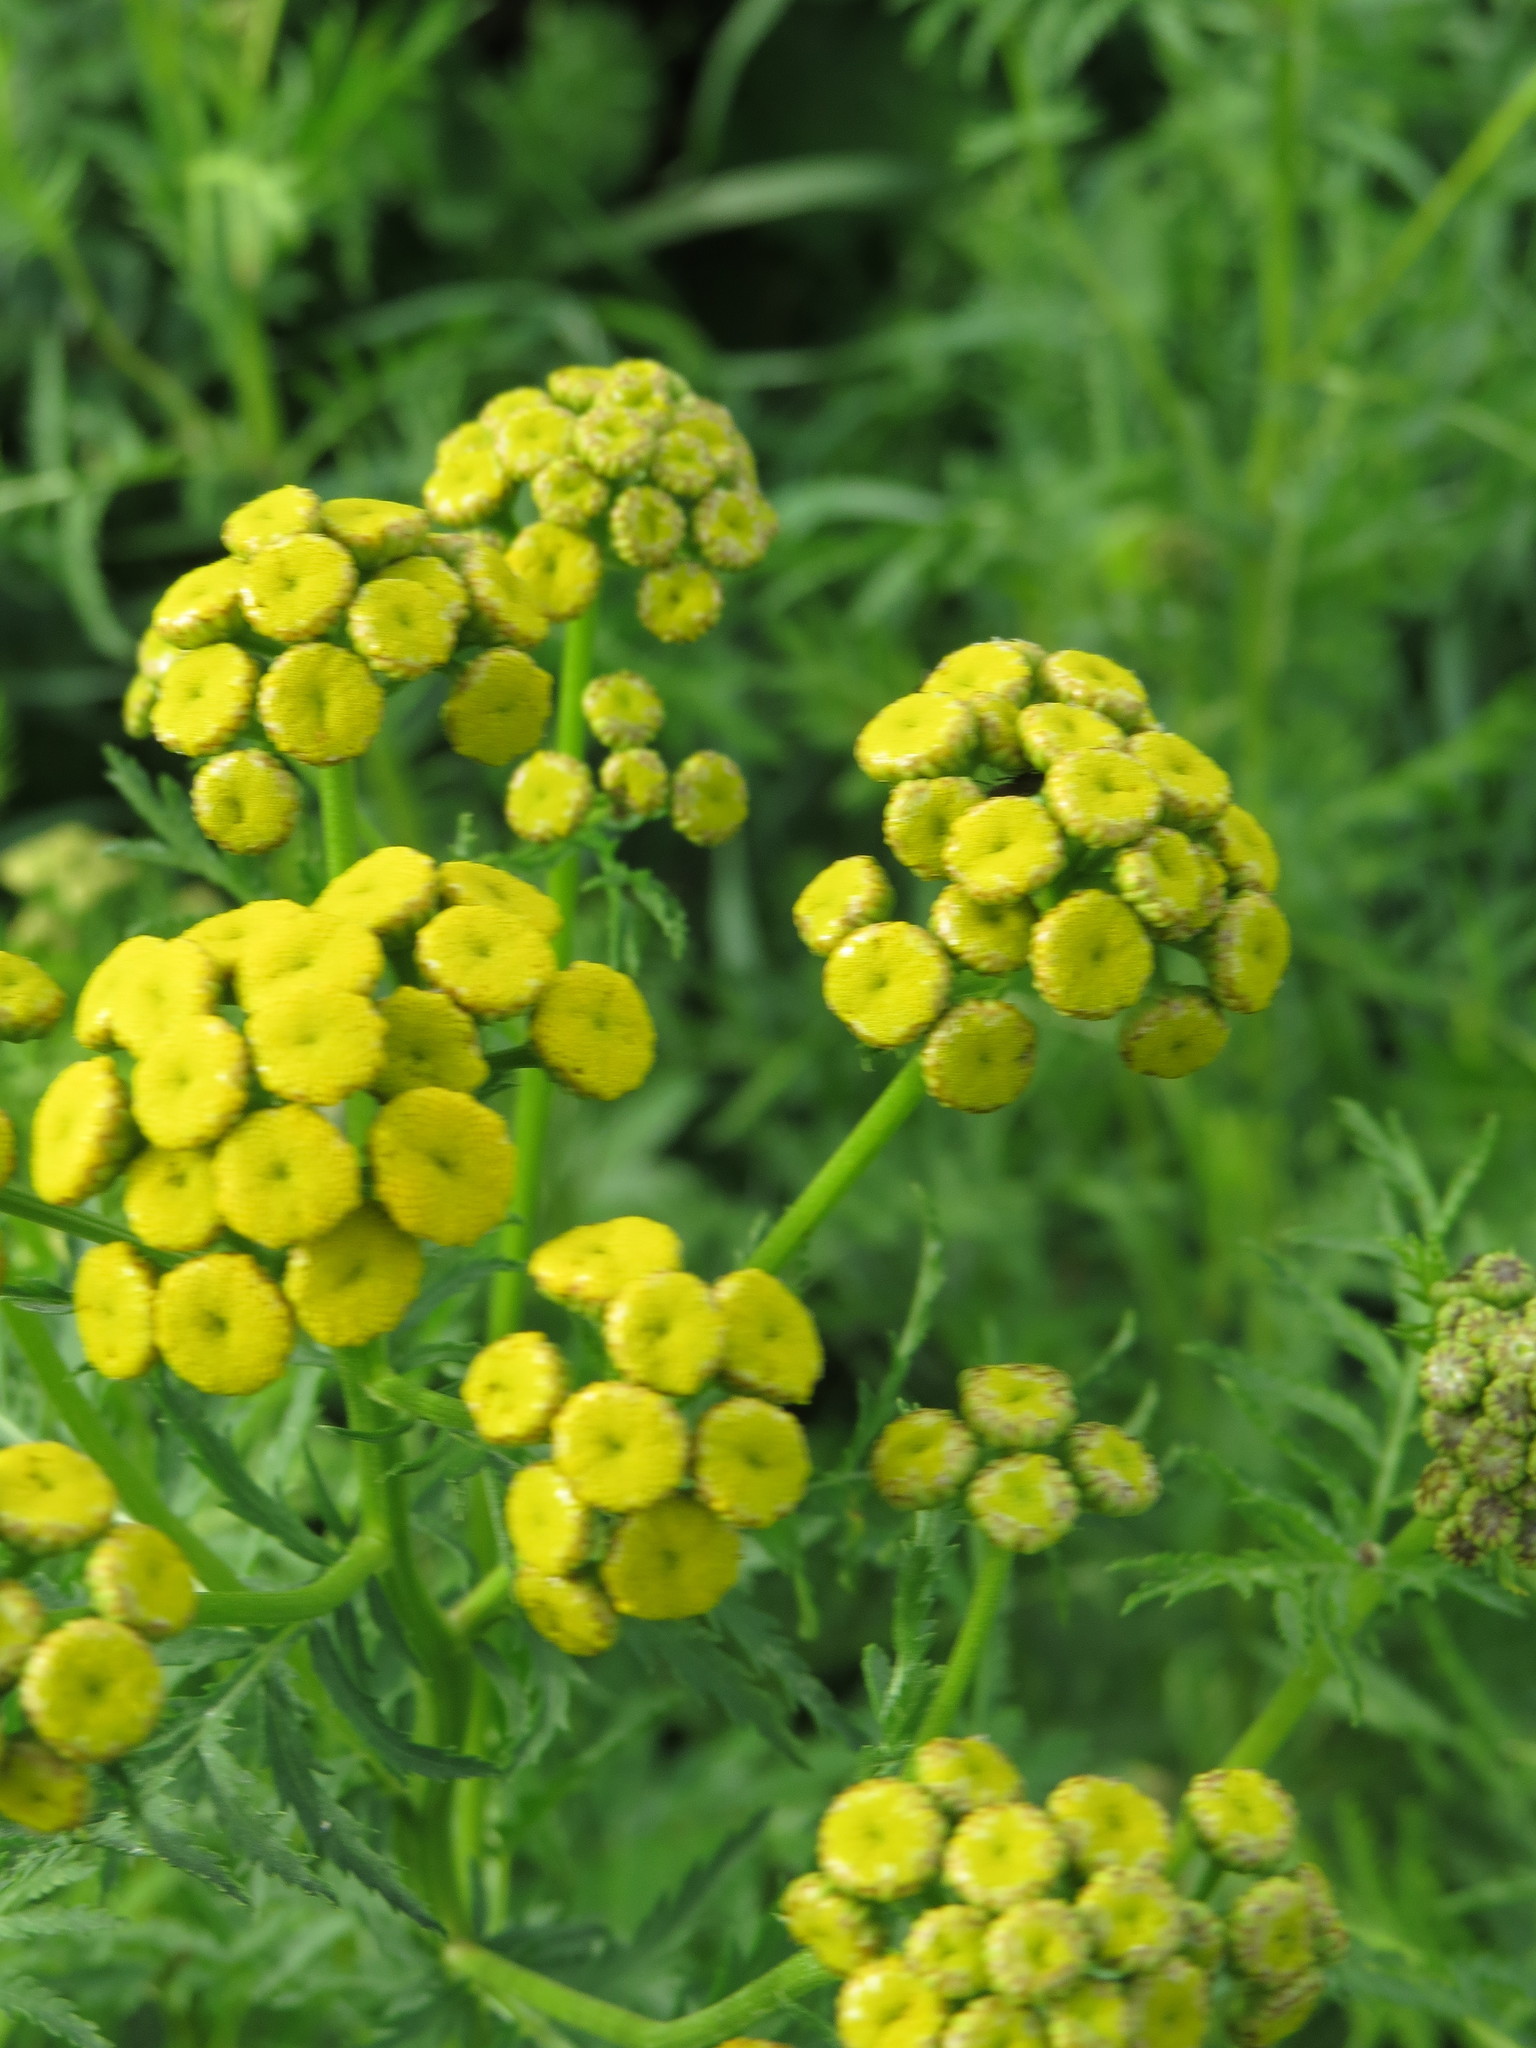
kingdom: Plantae
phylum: Tracheophyta
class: Magnoliopsida
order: Asterales
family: Asteraceae
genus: Tanacetum
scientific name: Tanacetum vulgare
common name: Common tansy
